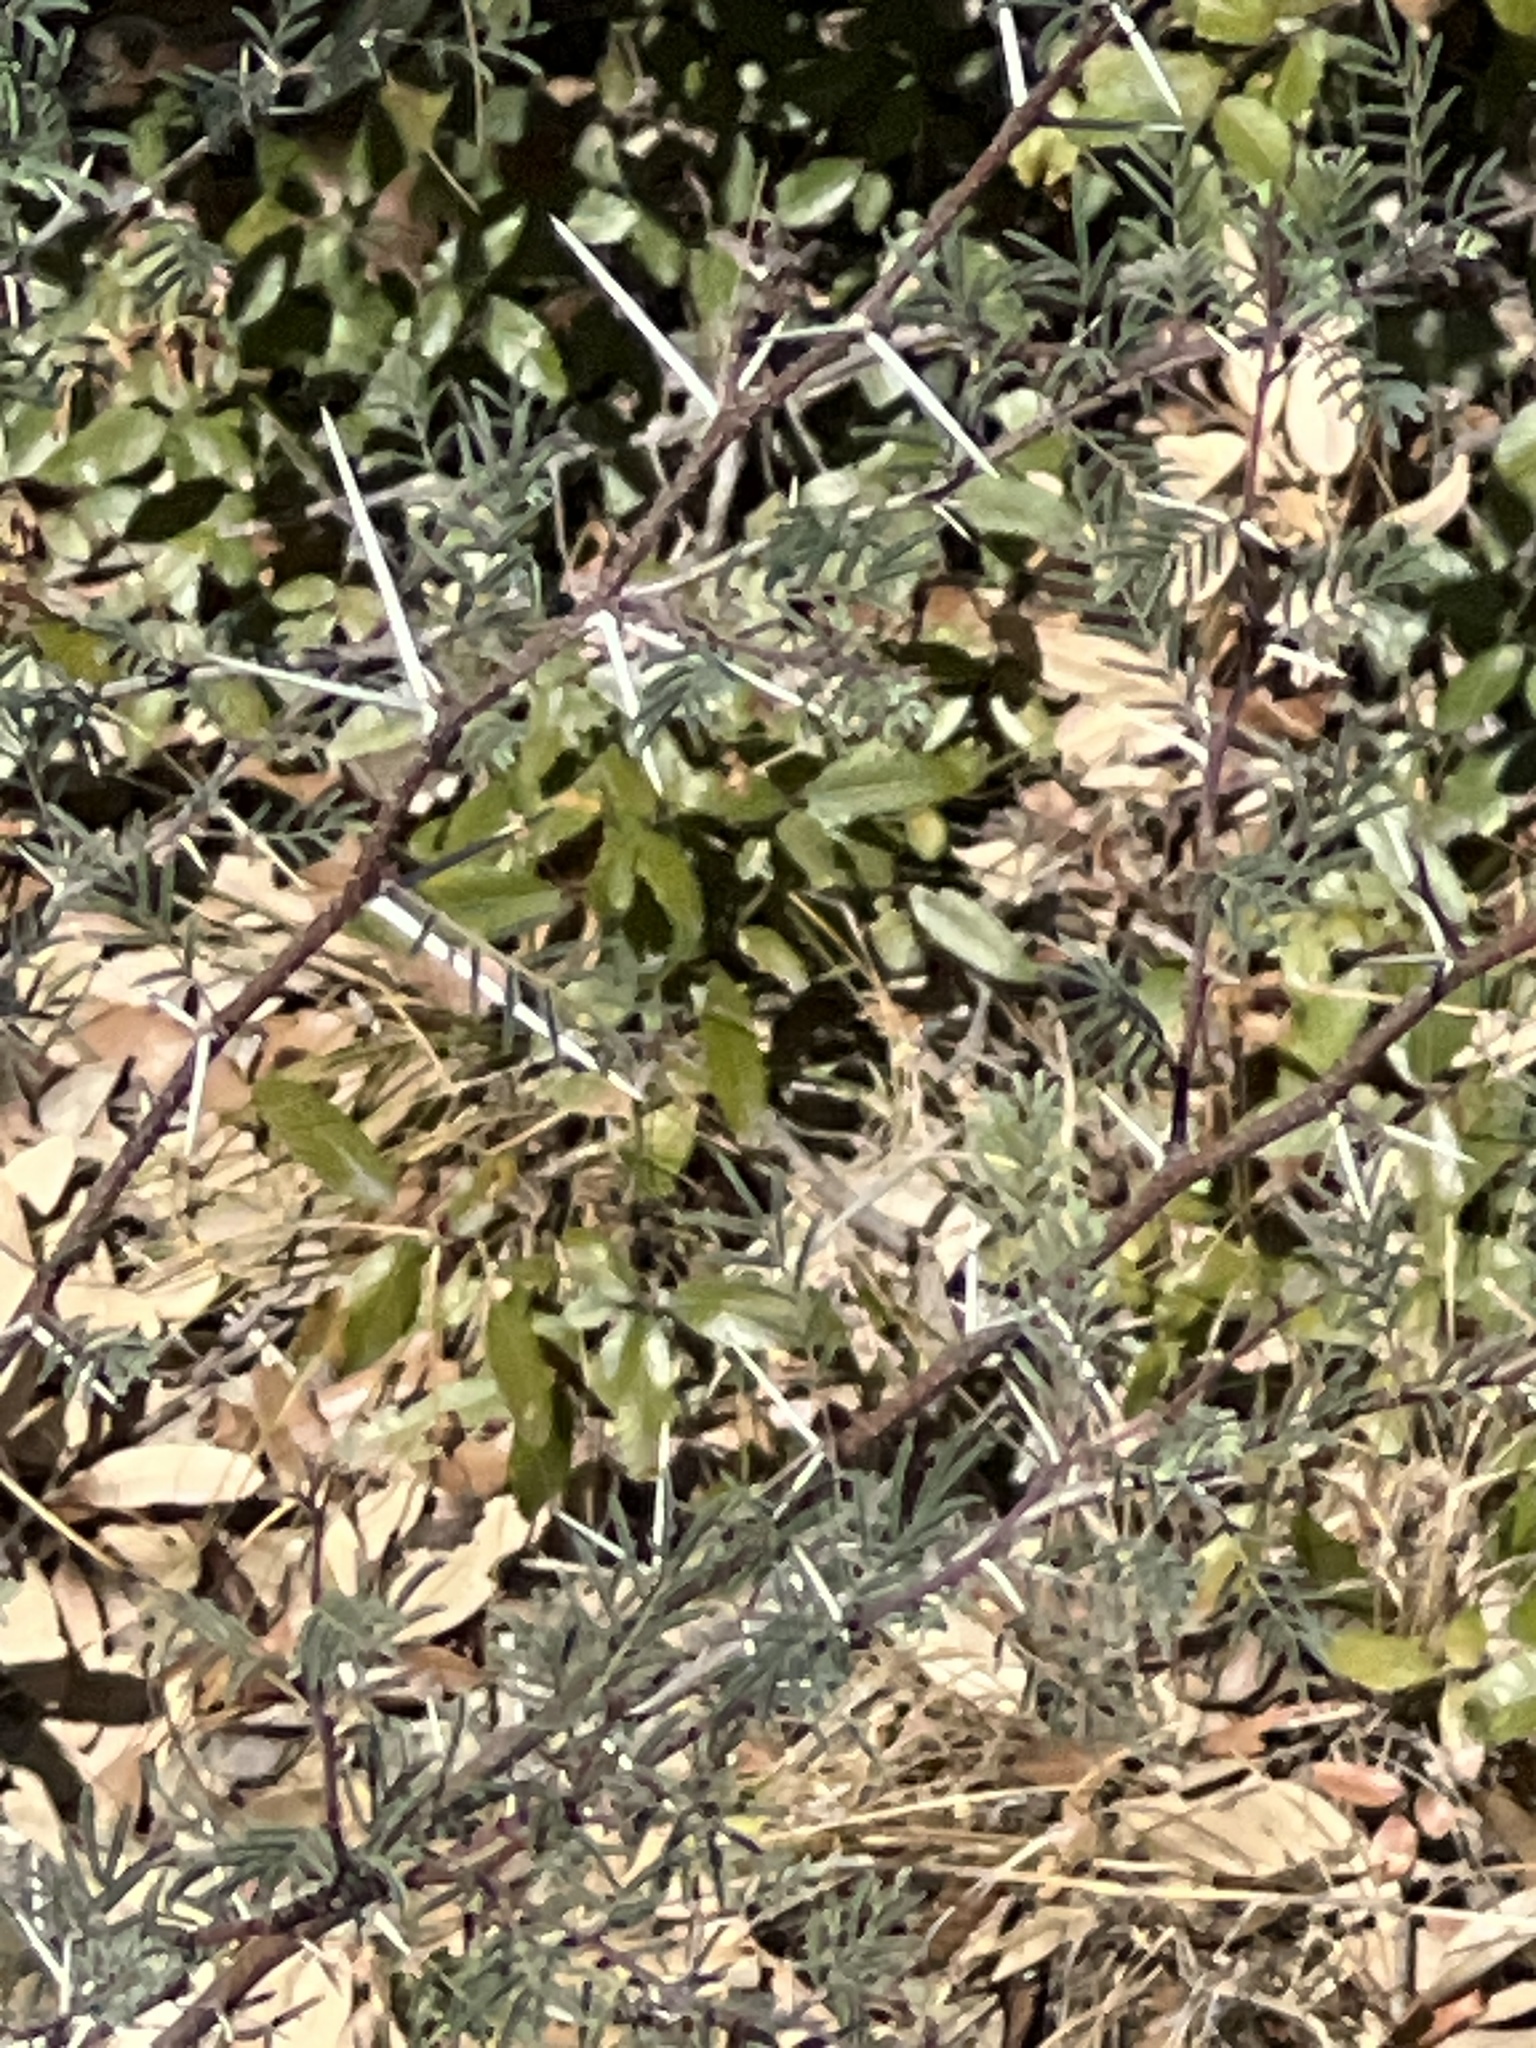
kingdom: Plantae
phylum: Tracheophyta
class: Magnoliopsida
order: Fabales
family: Fabaceae
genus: Vachellia
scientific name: Vachellia farnesiana
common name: Sweet acacia
